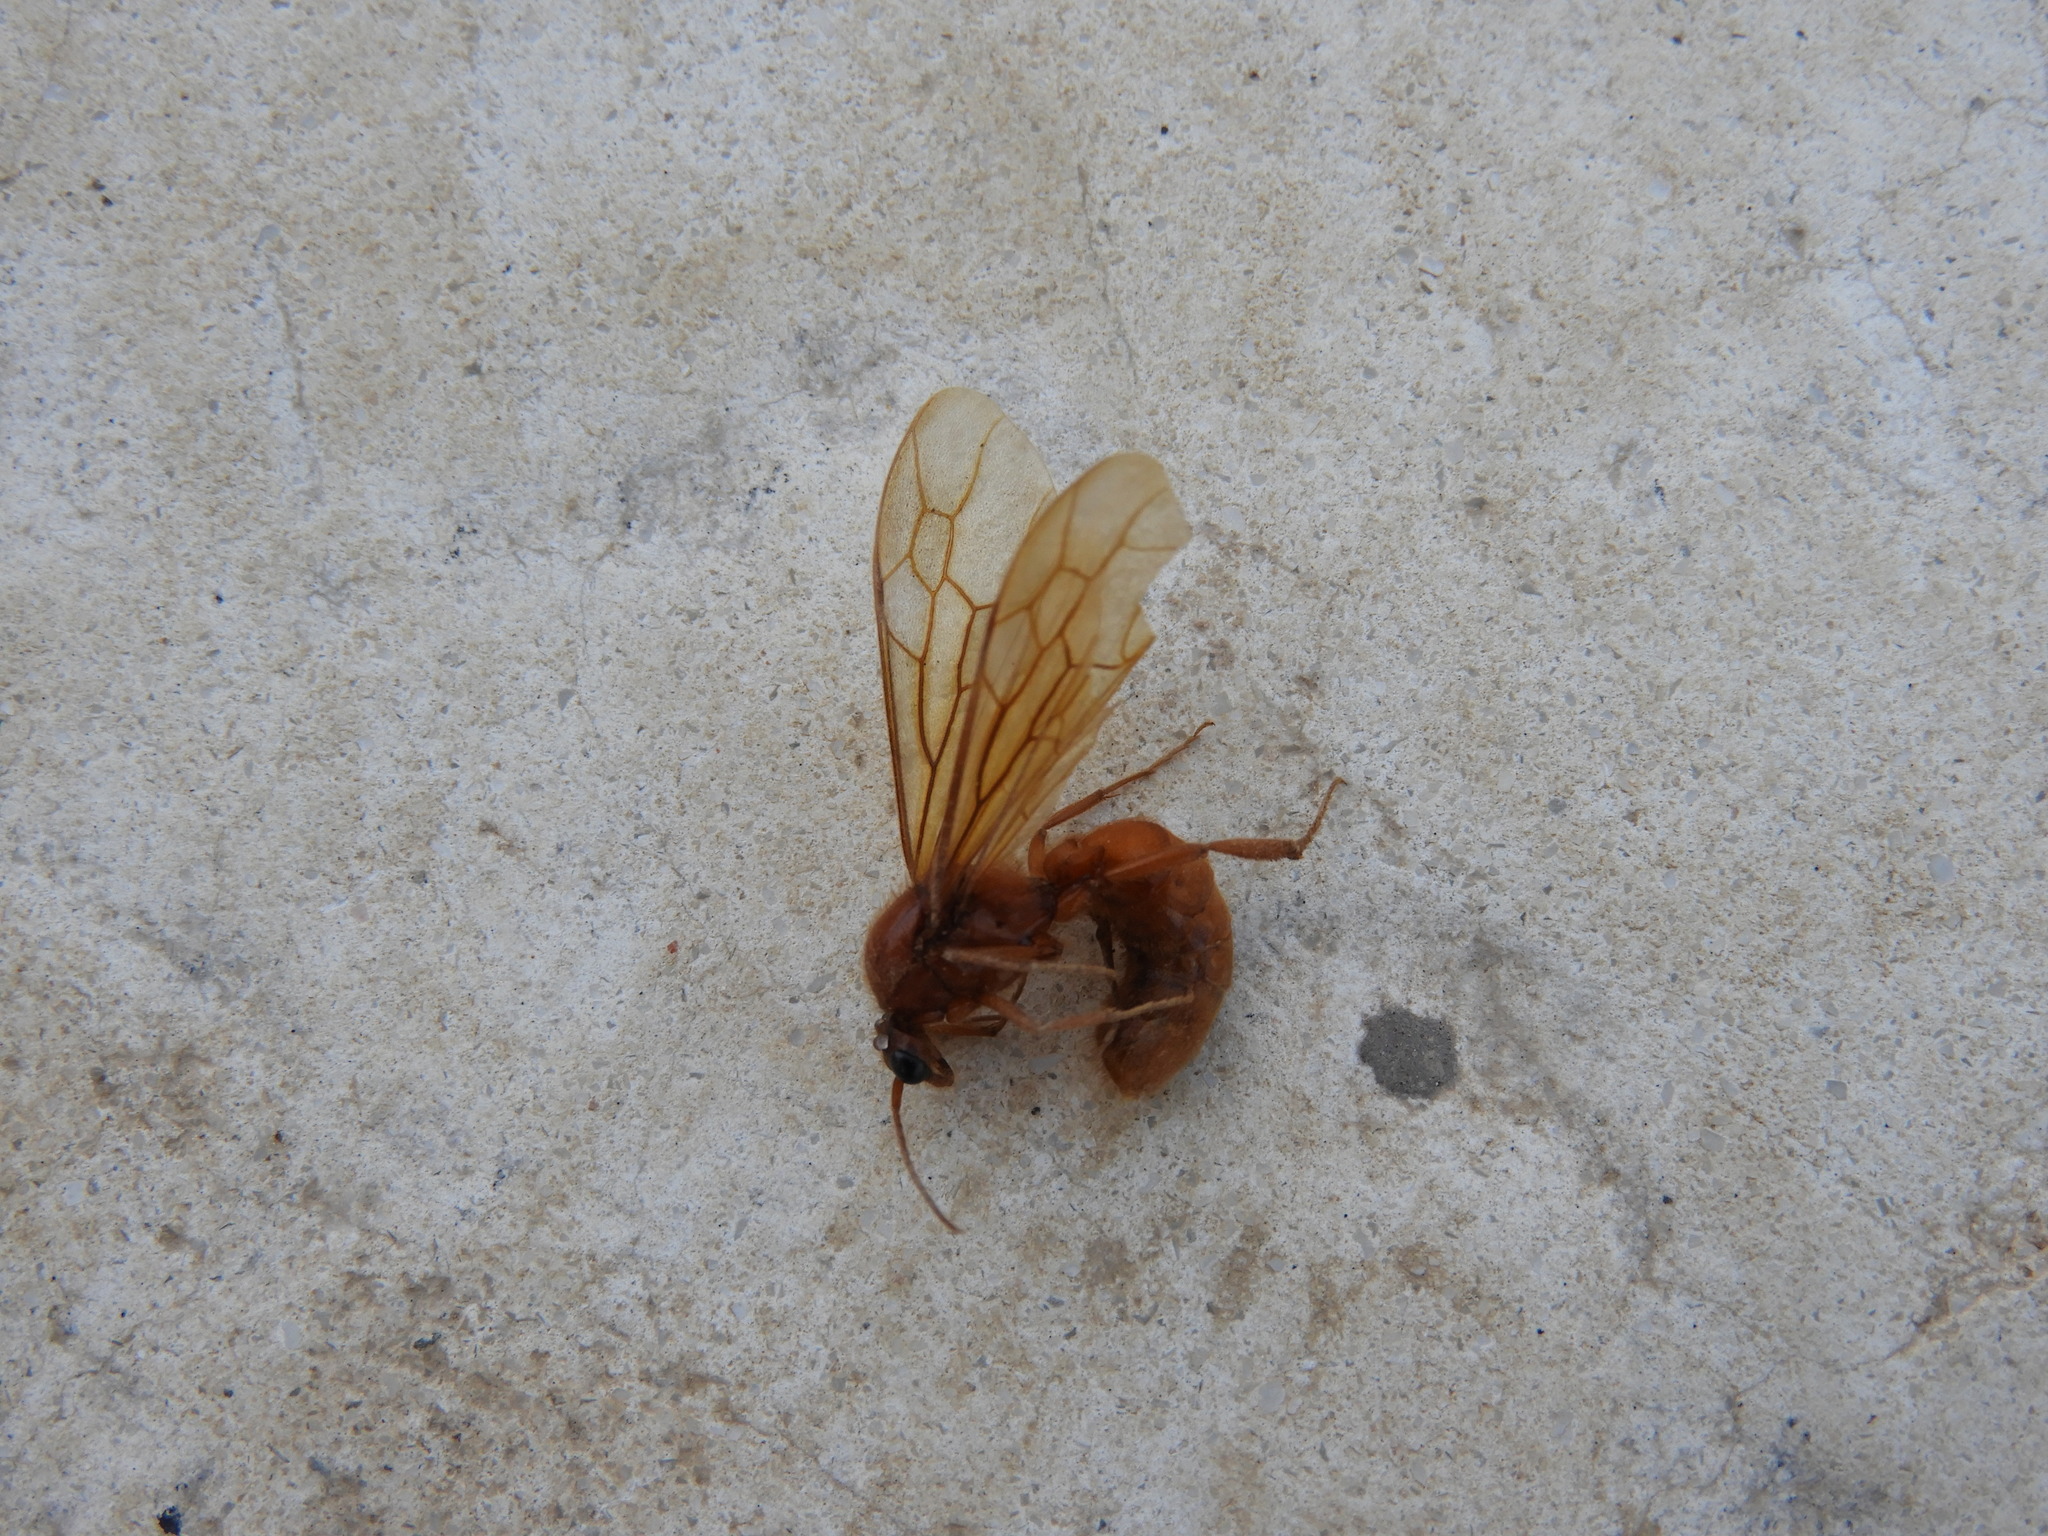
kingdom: Animalia
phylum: Arthropoda
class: Insecta
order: Hymenoptera
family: Formicidae
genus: Neivamyrmex
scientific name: Neivamyrmex
